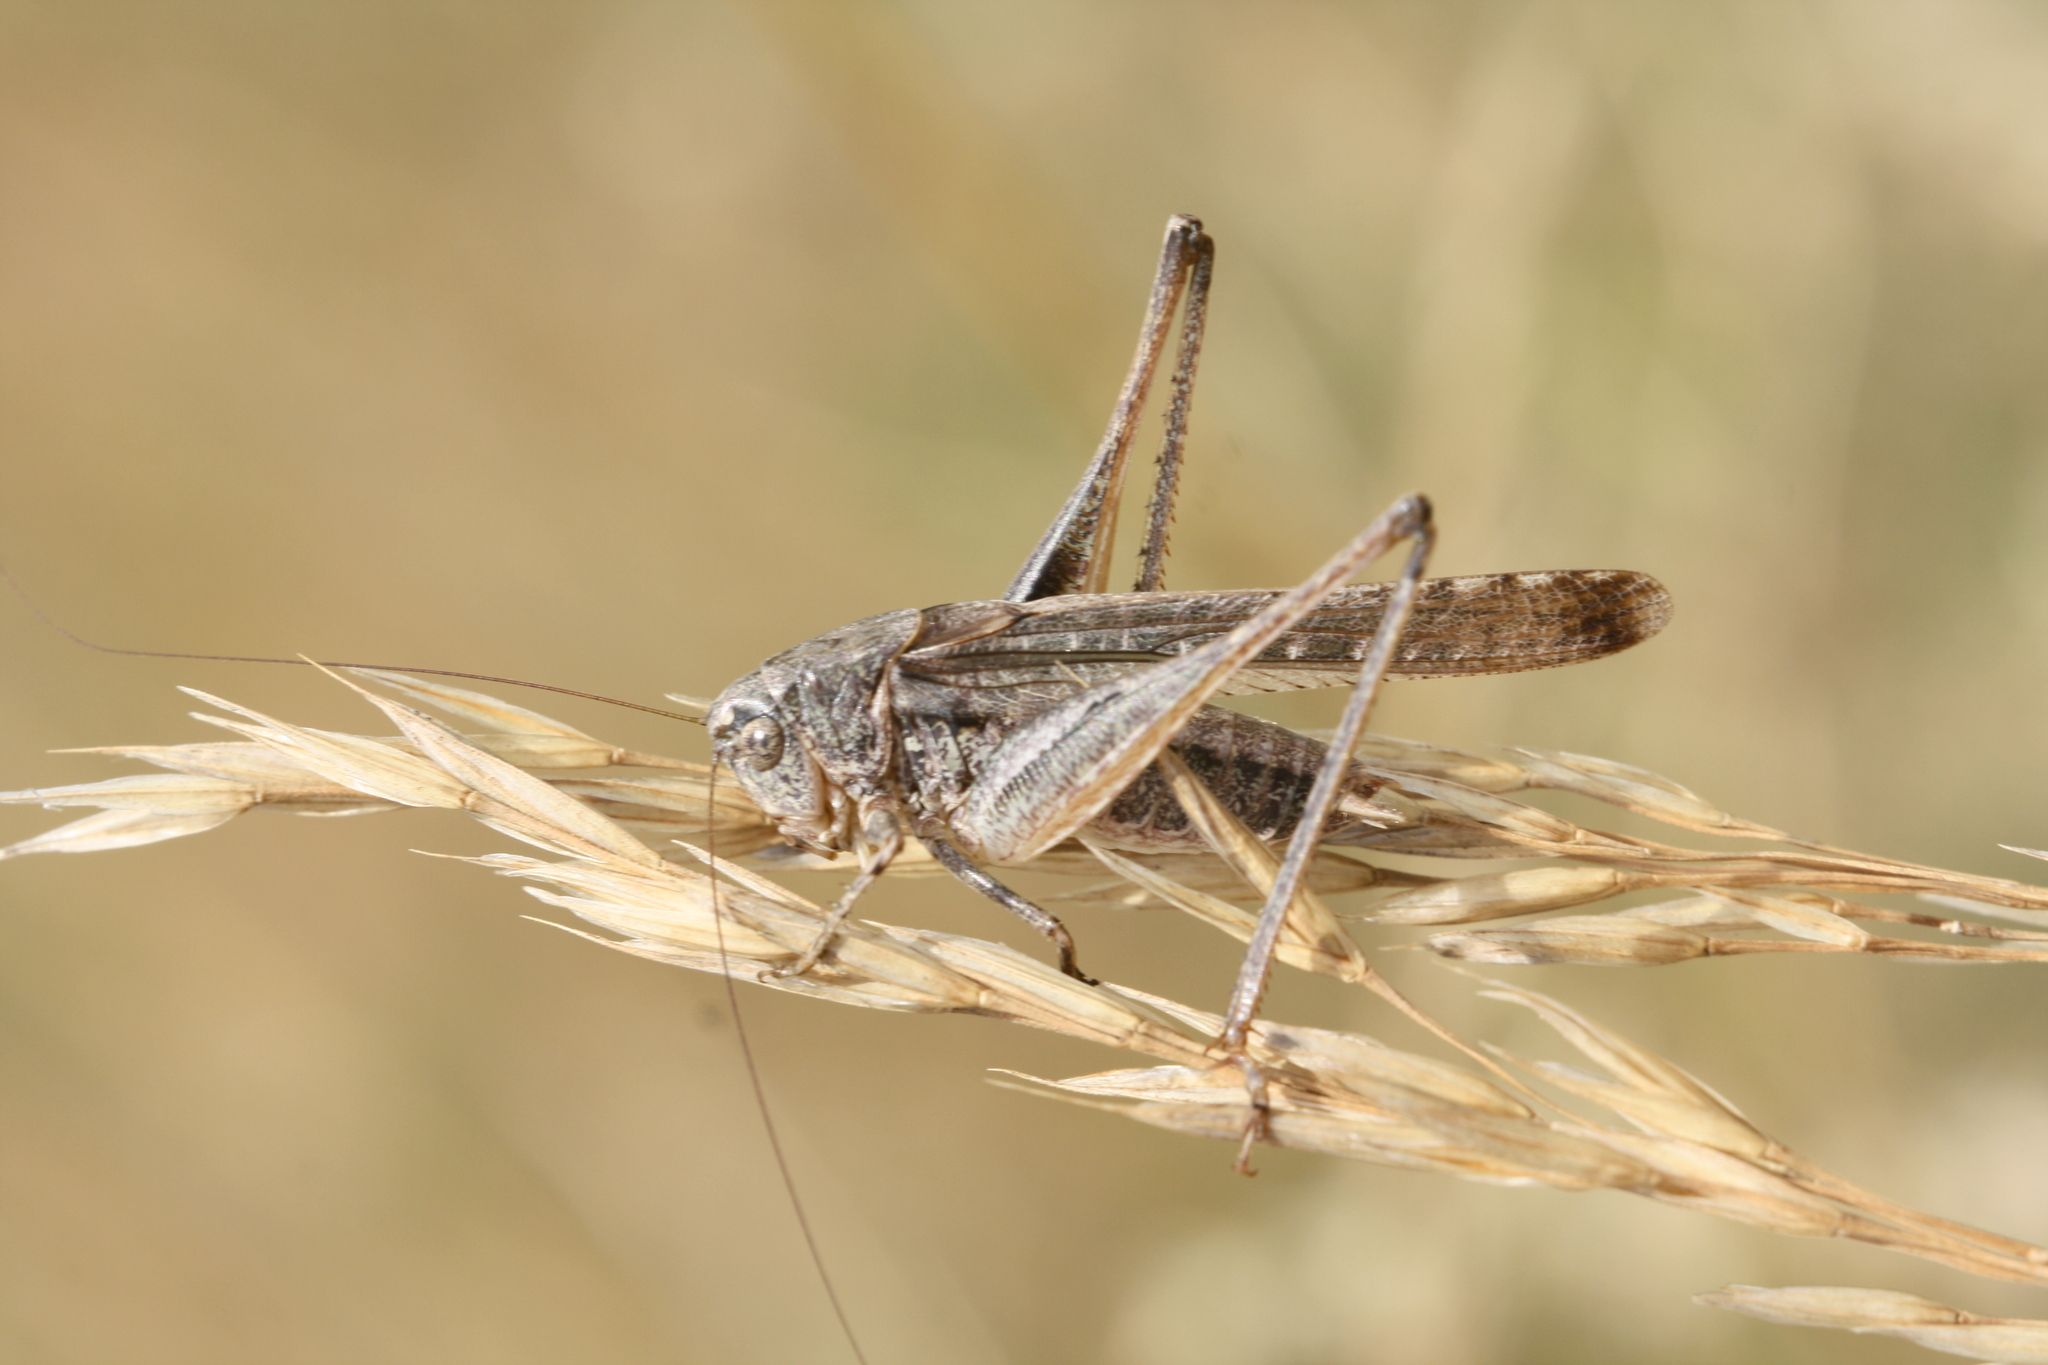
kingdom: Animalia
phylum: Arthropoda
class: Insecta
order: Orthoptera
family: Tettigoniidae
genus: Platycleis
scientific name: Platycleis grisea
